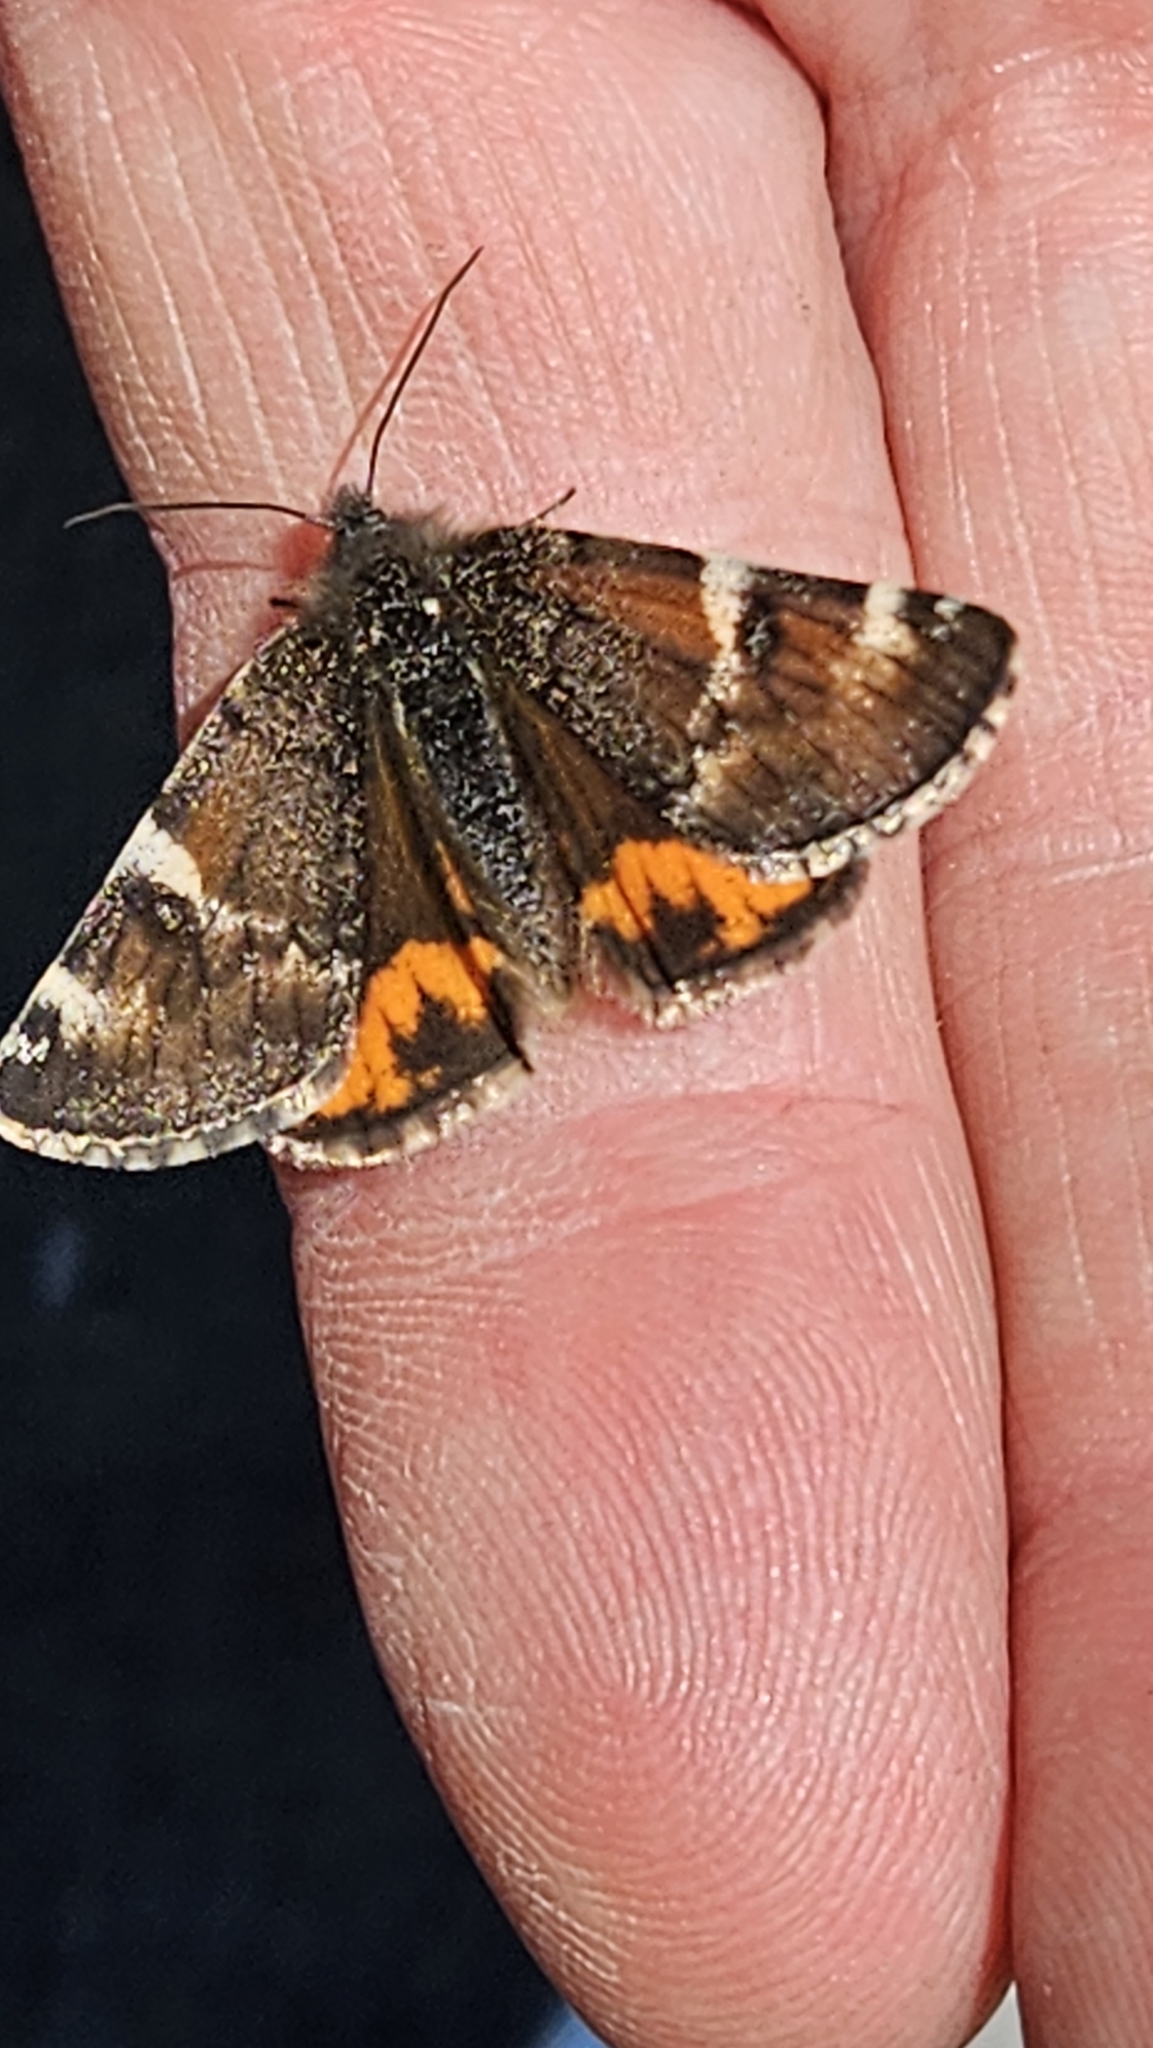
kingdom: Animalia
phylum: Arthropoda
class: Insecta
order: Lepidoptera
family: Geometridae
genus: Archiearis
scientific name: Archiearis infans
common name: First born geometer
